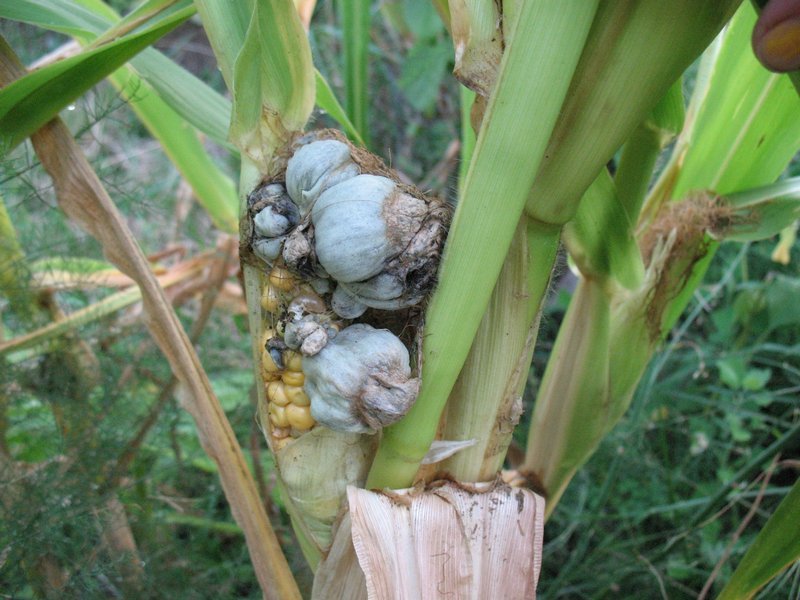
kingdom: Fungi
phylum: Basidiomycota
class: Ustilaginomycetes
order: Ustilaginales
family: Ustilaginaceae
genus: Mycosarcoma
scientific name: Mycosarcoma maydis
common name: Corn smut
